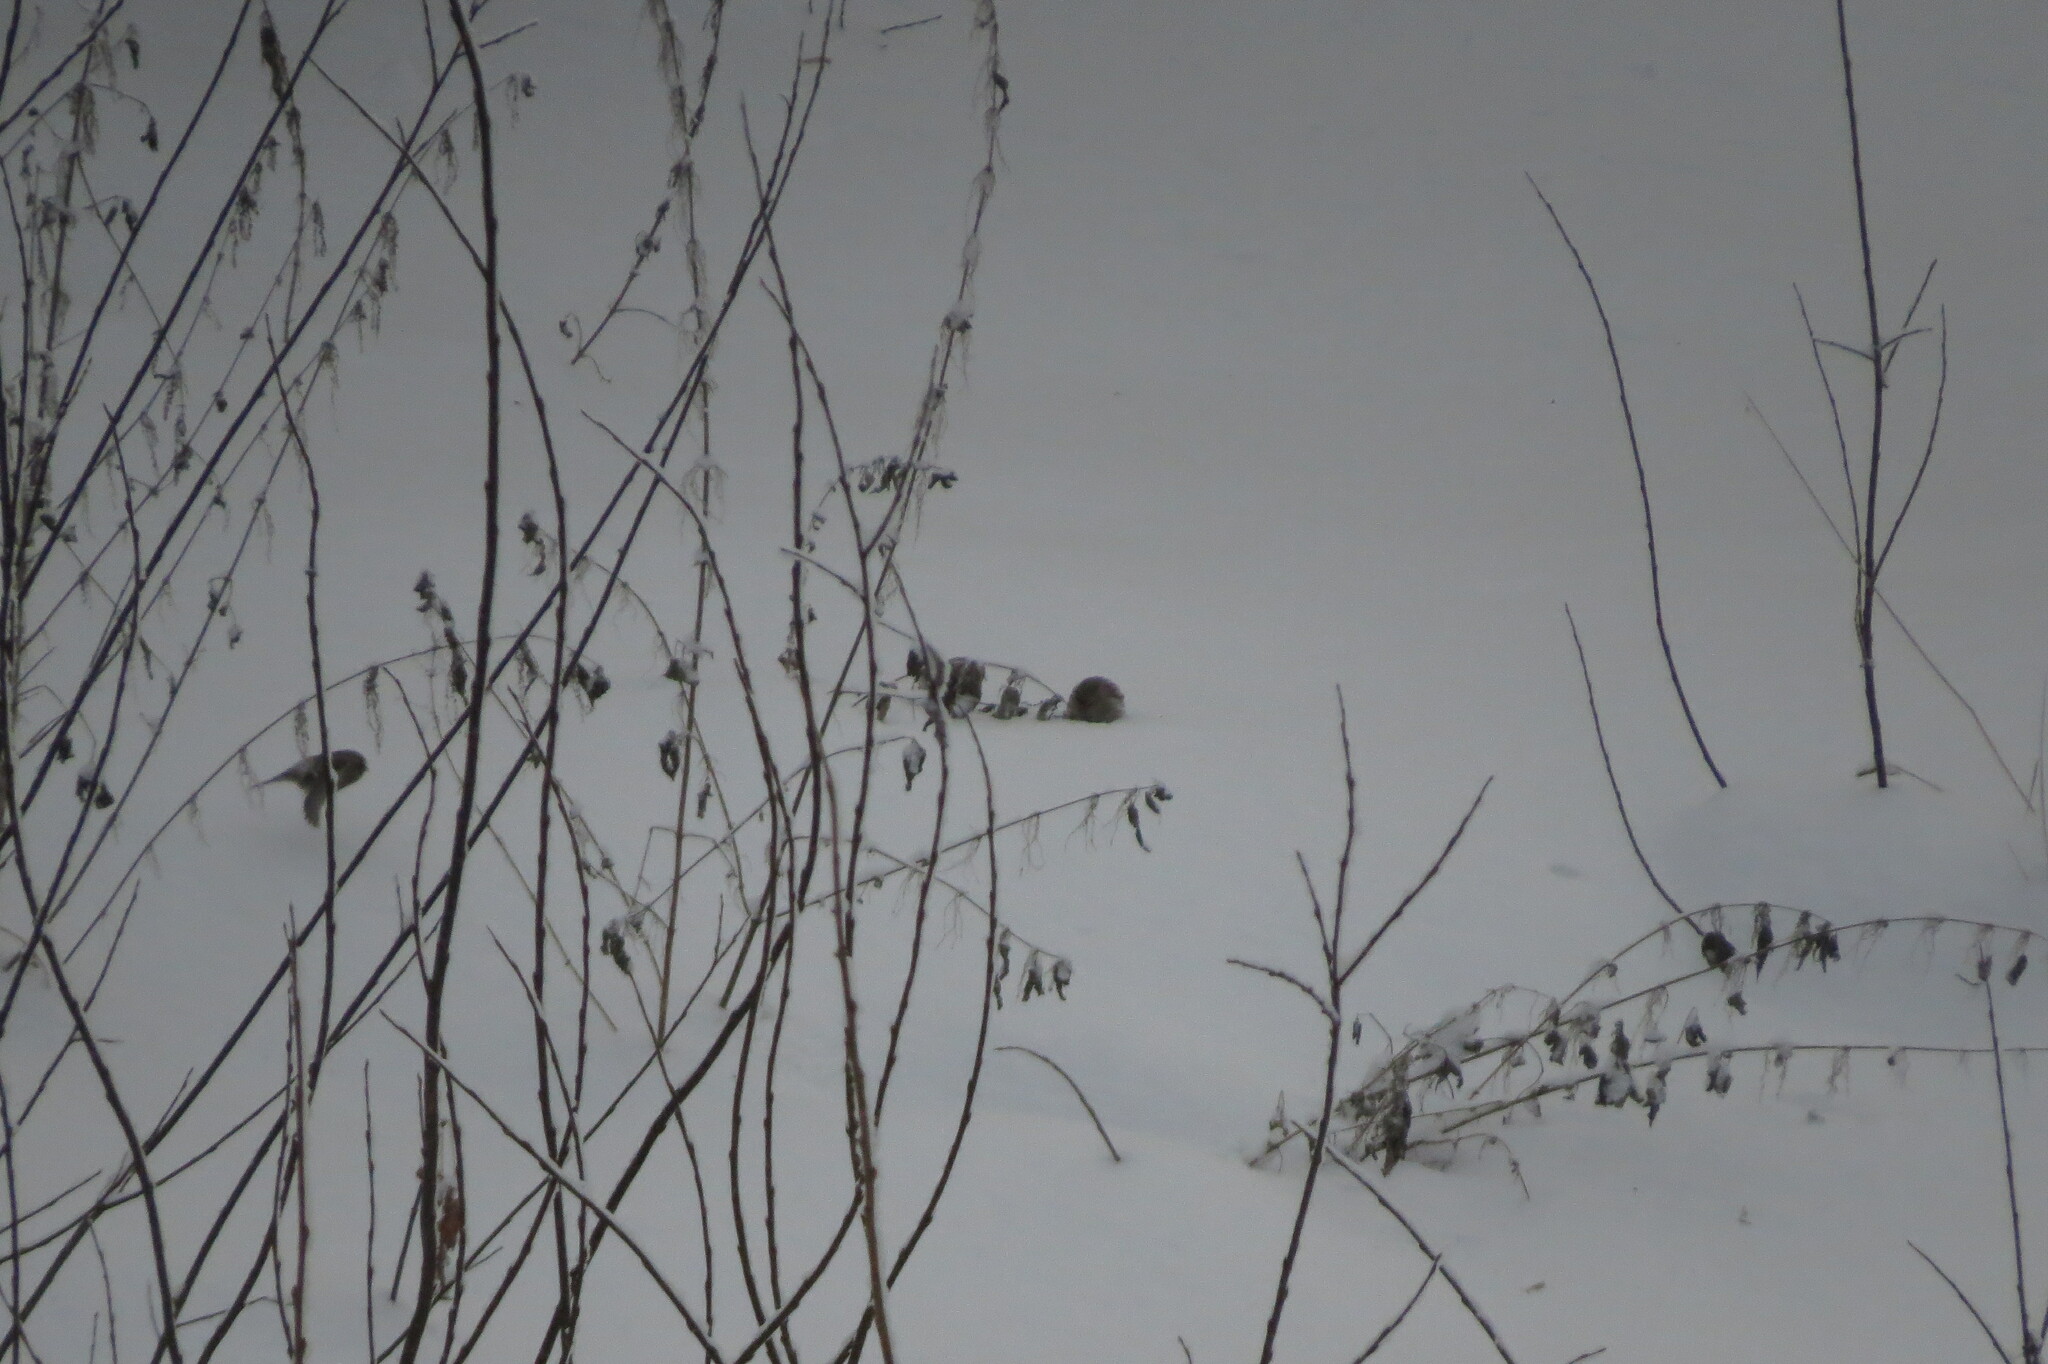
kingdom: Animalia
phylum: Chordata
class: Aves
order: Passeriformes
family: Fringillidae
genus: Acanthis
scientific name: Acanthis flammea
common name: Common redpoll
